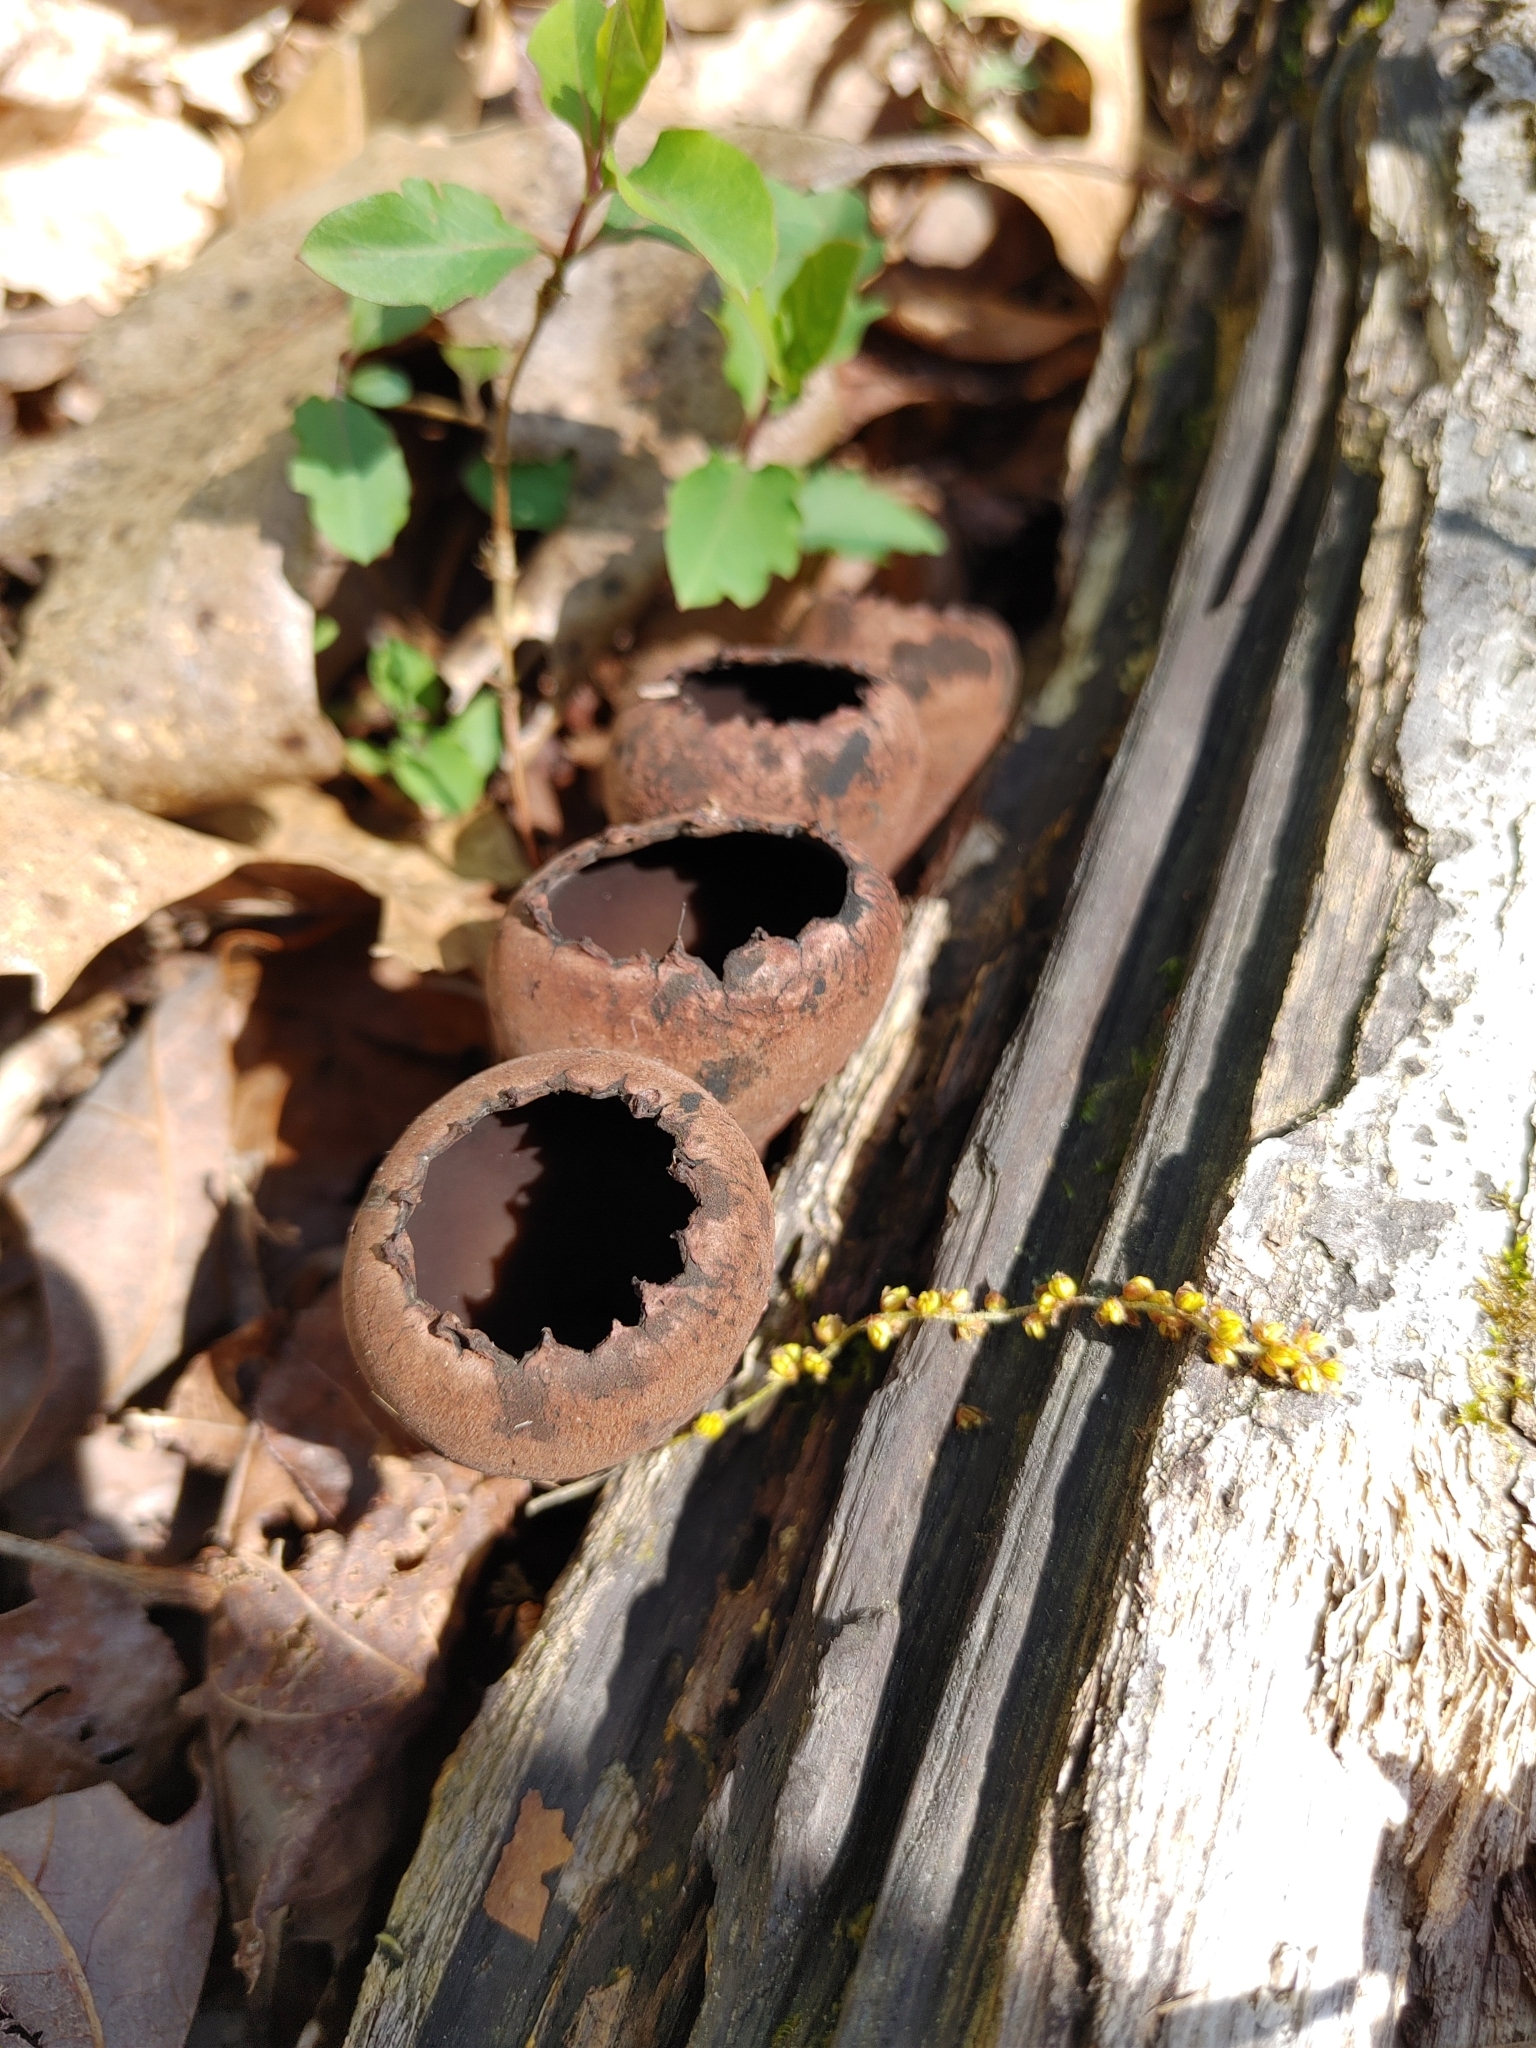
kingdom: Fungi
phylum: Ascomycota
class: Pezizomycetes
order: Pezizales
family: Sarcosomataceae
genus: Urnula
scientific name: Urnula craterium
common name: Devil's urn
